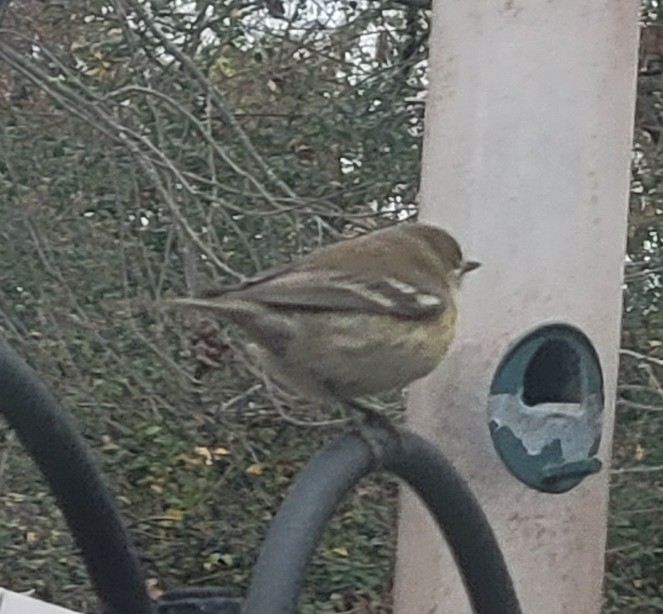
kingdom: Animalia
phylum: Chordata
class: Aves
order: Passeriformes
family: Parulidae
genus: Setophaga
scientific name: Setophaga pinus
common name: Pine warbler
